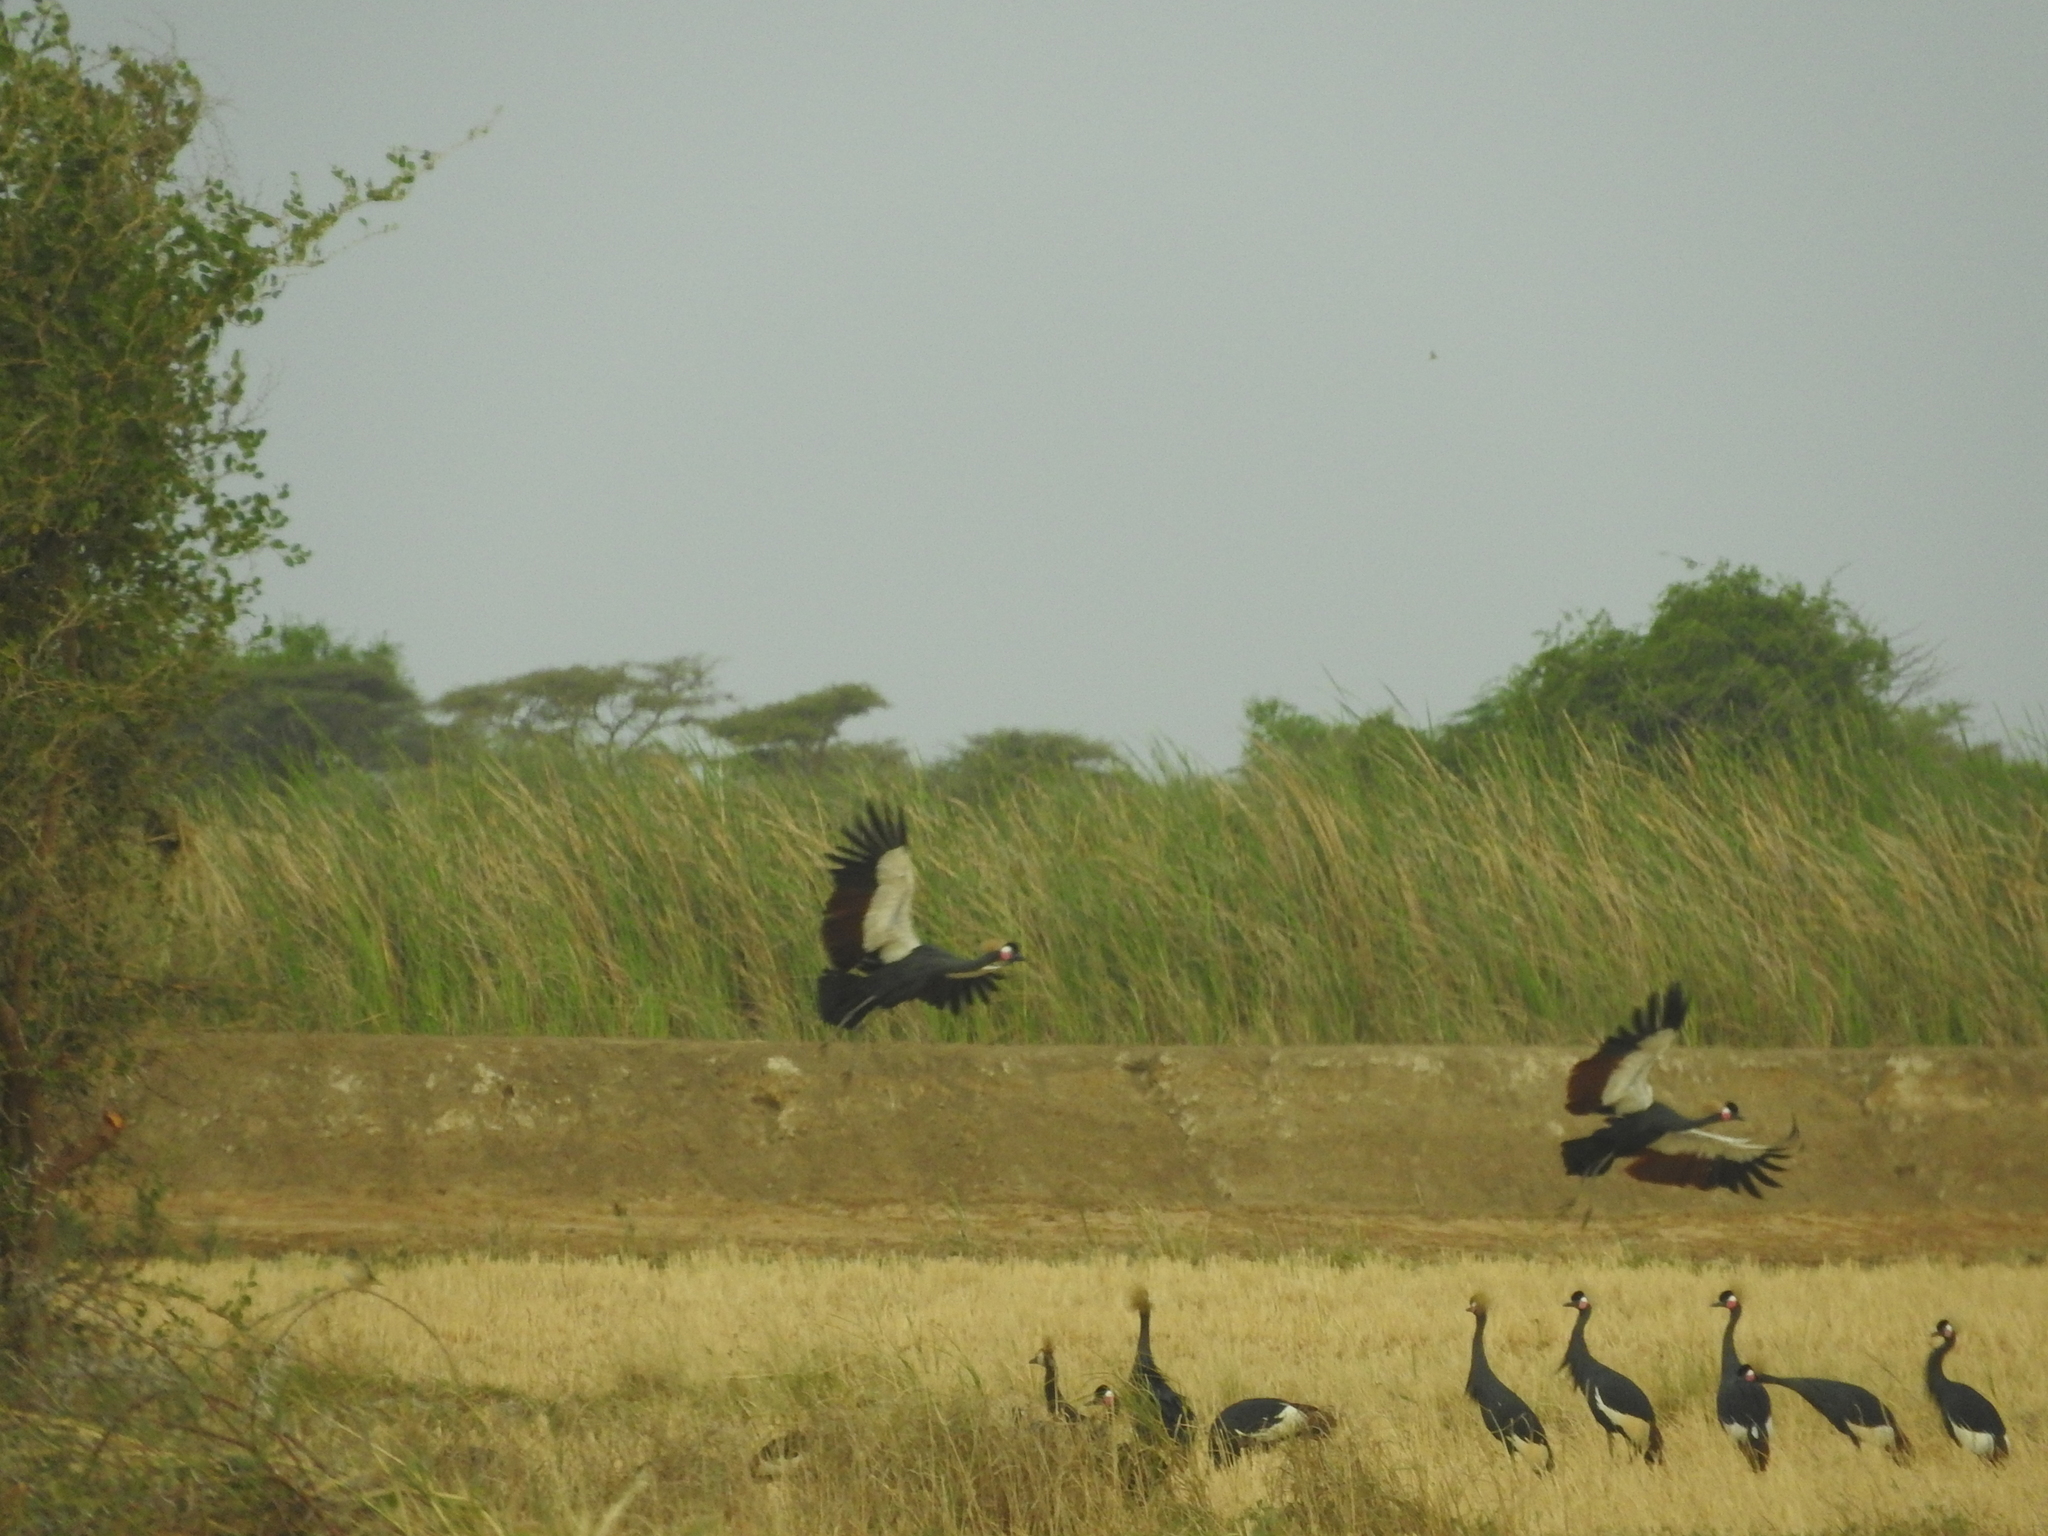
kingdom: Animalia
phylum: Chordata
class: Aves
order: Gruiformes
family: Gruidae
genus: Balearica
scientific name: Balearica pavonina
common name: Black crowned crane
